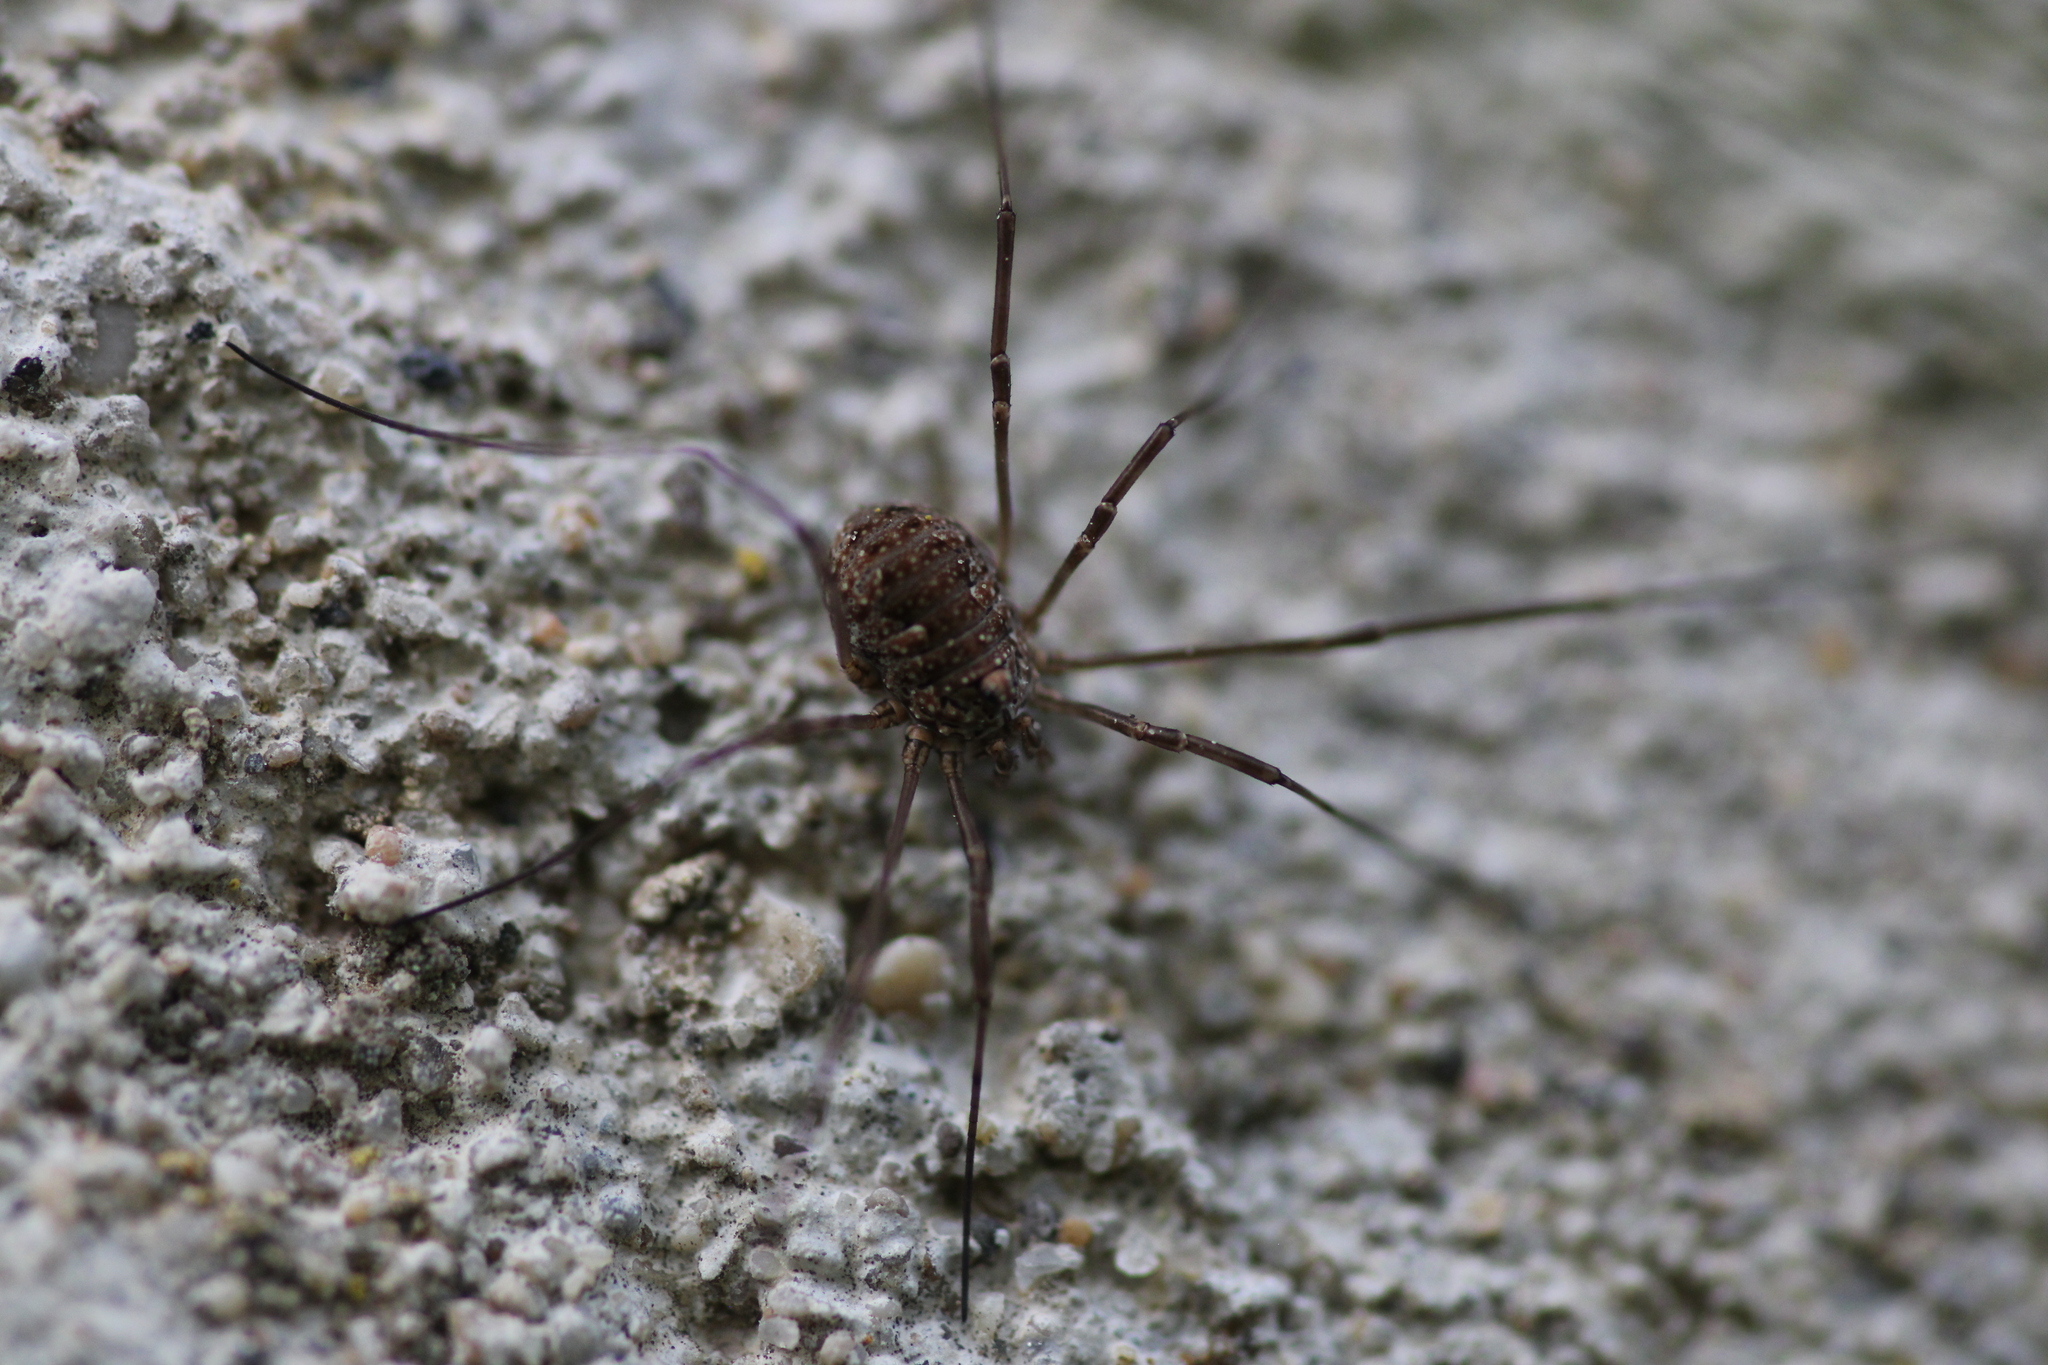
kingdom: Animalia
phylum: Arthropoda
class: Arachnida
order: Opiliones
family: Phalangiidae
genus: Phalangium
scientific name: Phalangium opilio
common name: Daddy longleg
